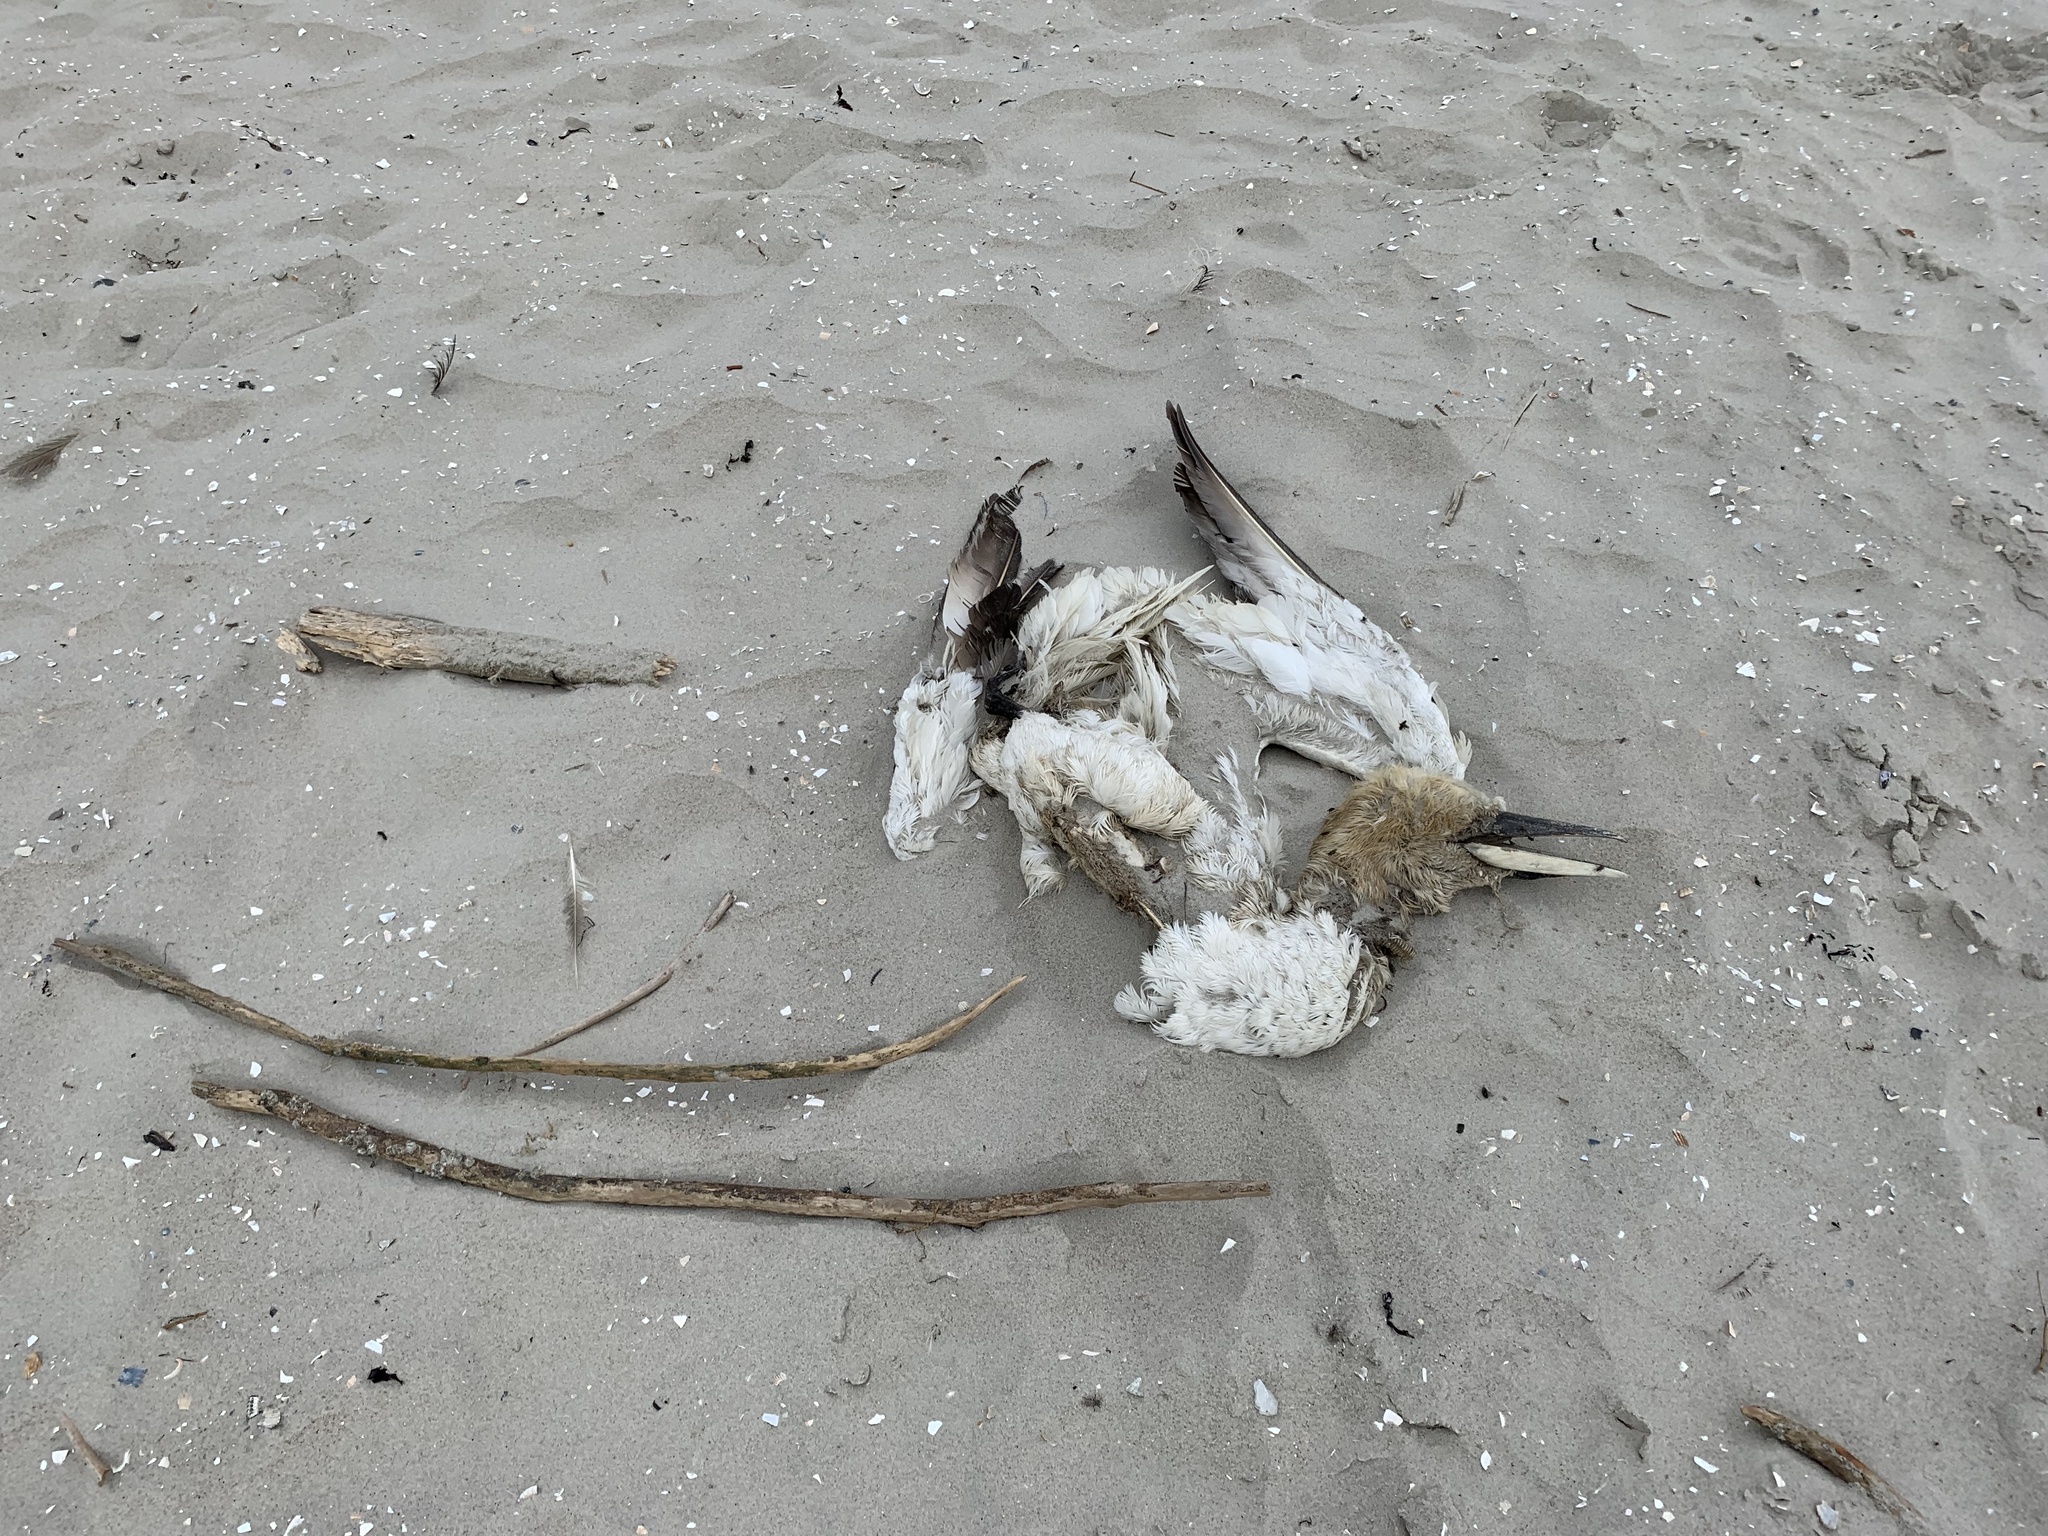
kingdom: Animalia
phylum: Chordata
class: Aves
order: Suliformes
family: Sulidae
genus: Morus
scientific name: Morus bassanus
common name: Northern gannet
